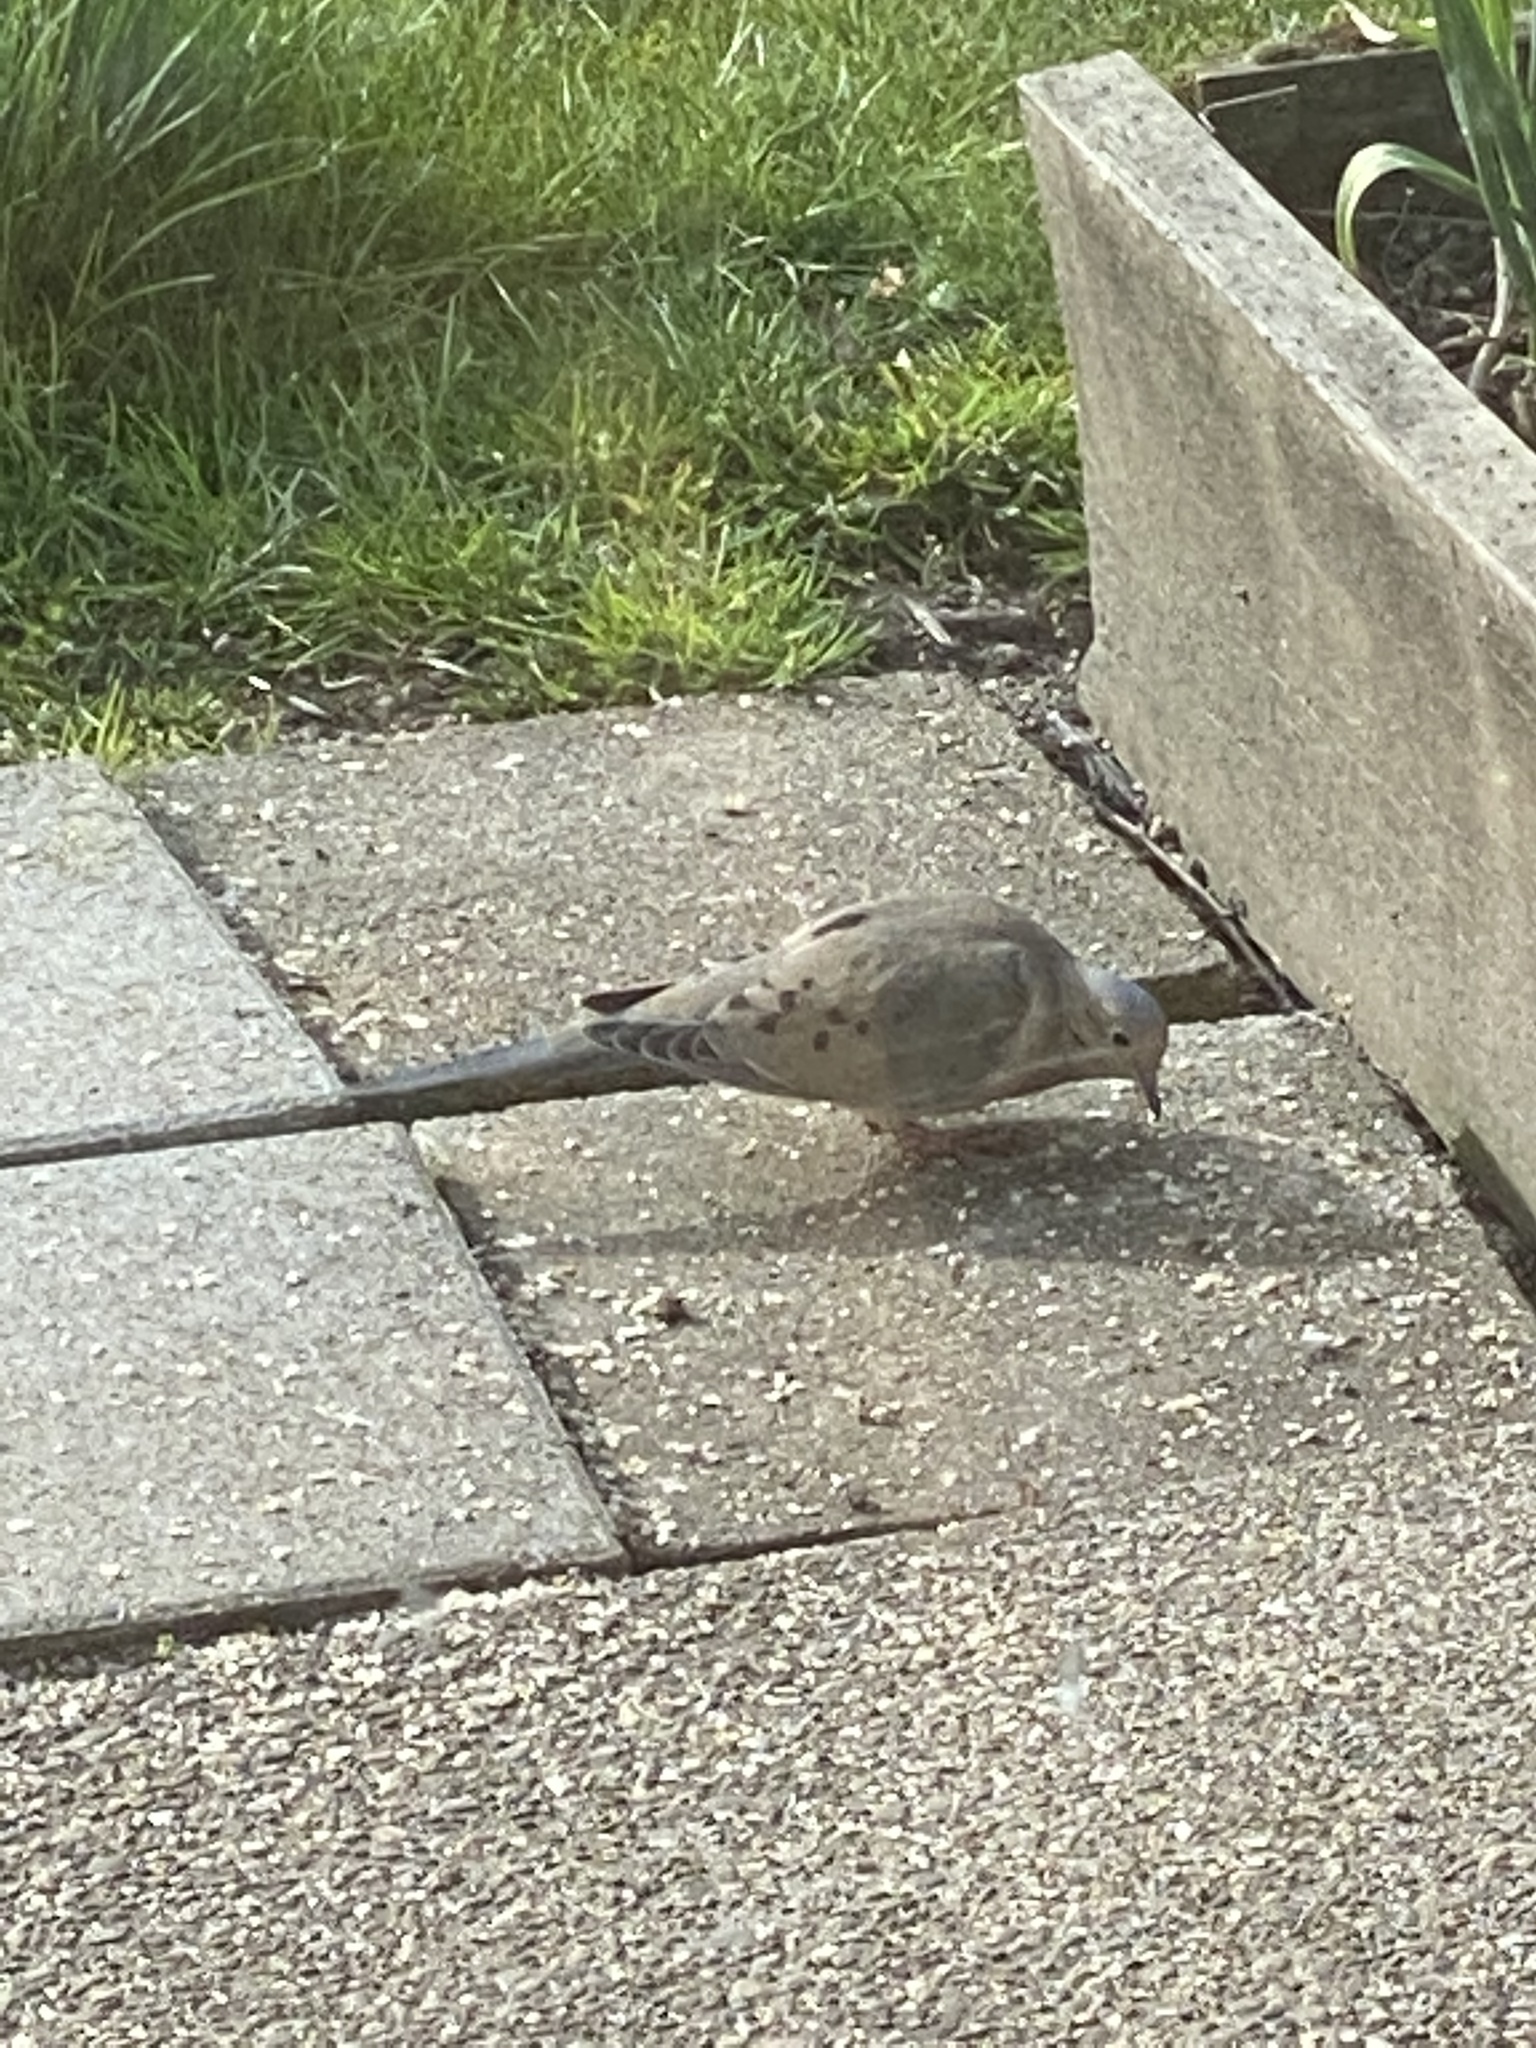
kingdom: Animalia
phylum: Chordata
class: Aves
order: Columbiformes
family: Columbidae
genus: Zenaida
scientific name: Zenaida macroura
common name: Mourning dove
